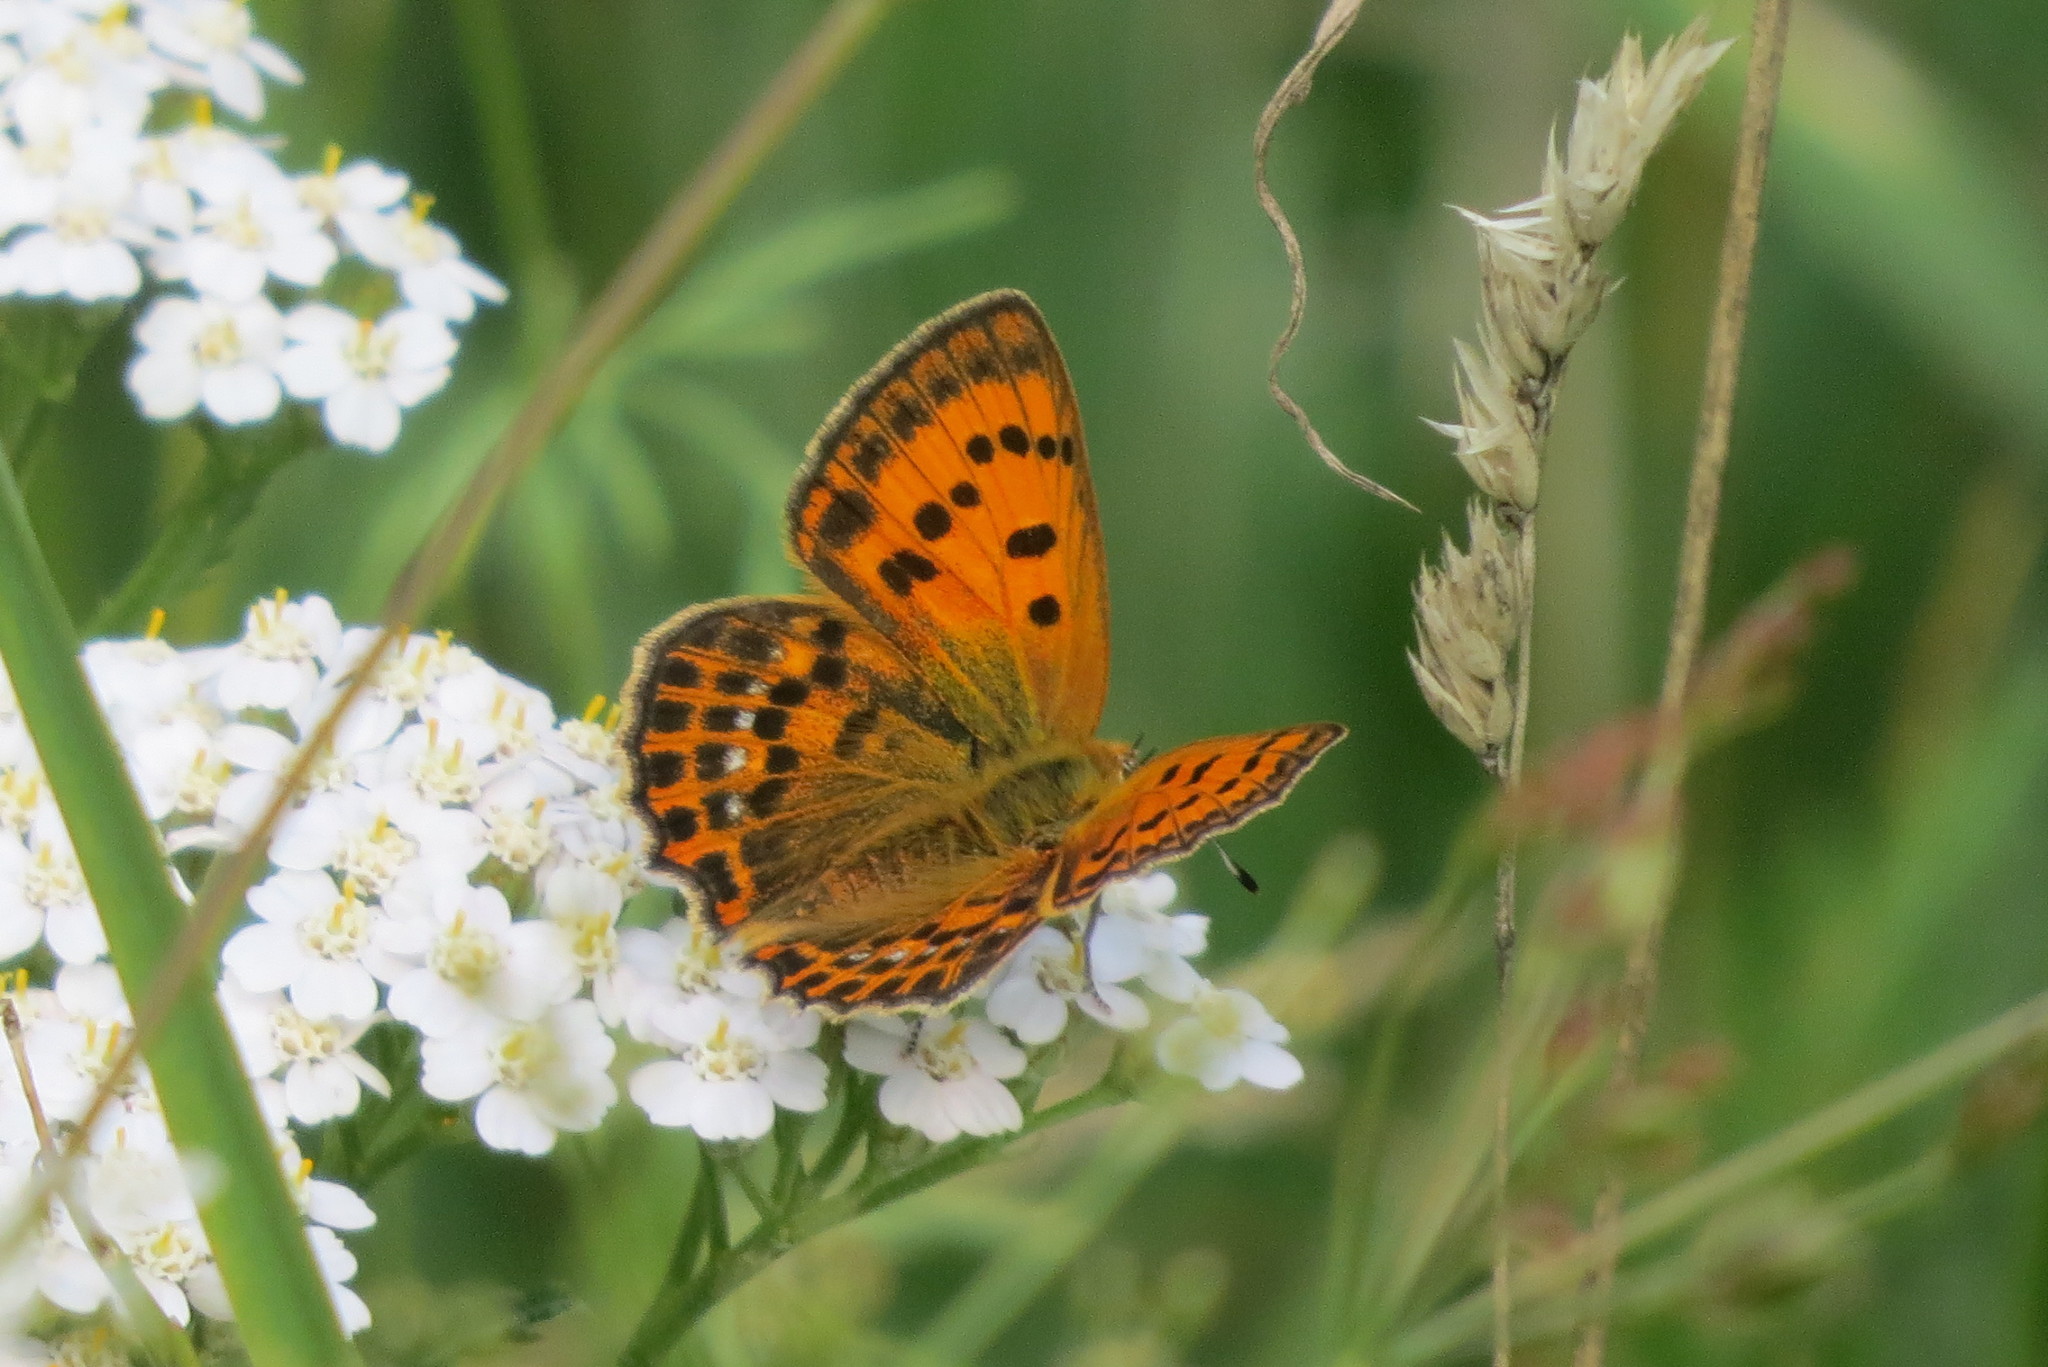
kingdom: Animalia
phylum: Arthropoda
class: Insecta
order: Lepidoptera
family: Lycaenidae
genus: Lycaena
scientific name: Lycaena virgaureae
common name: Scarce copper
